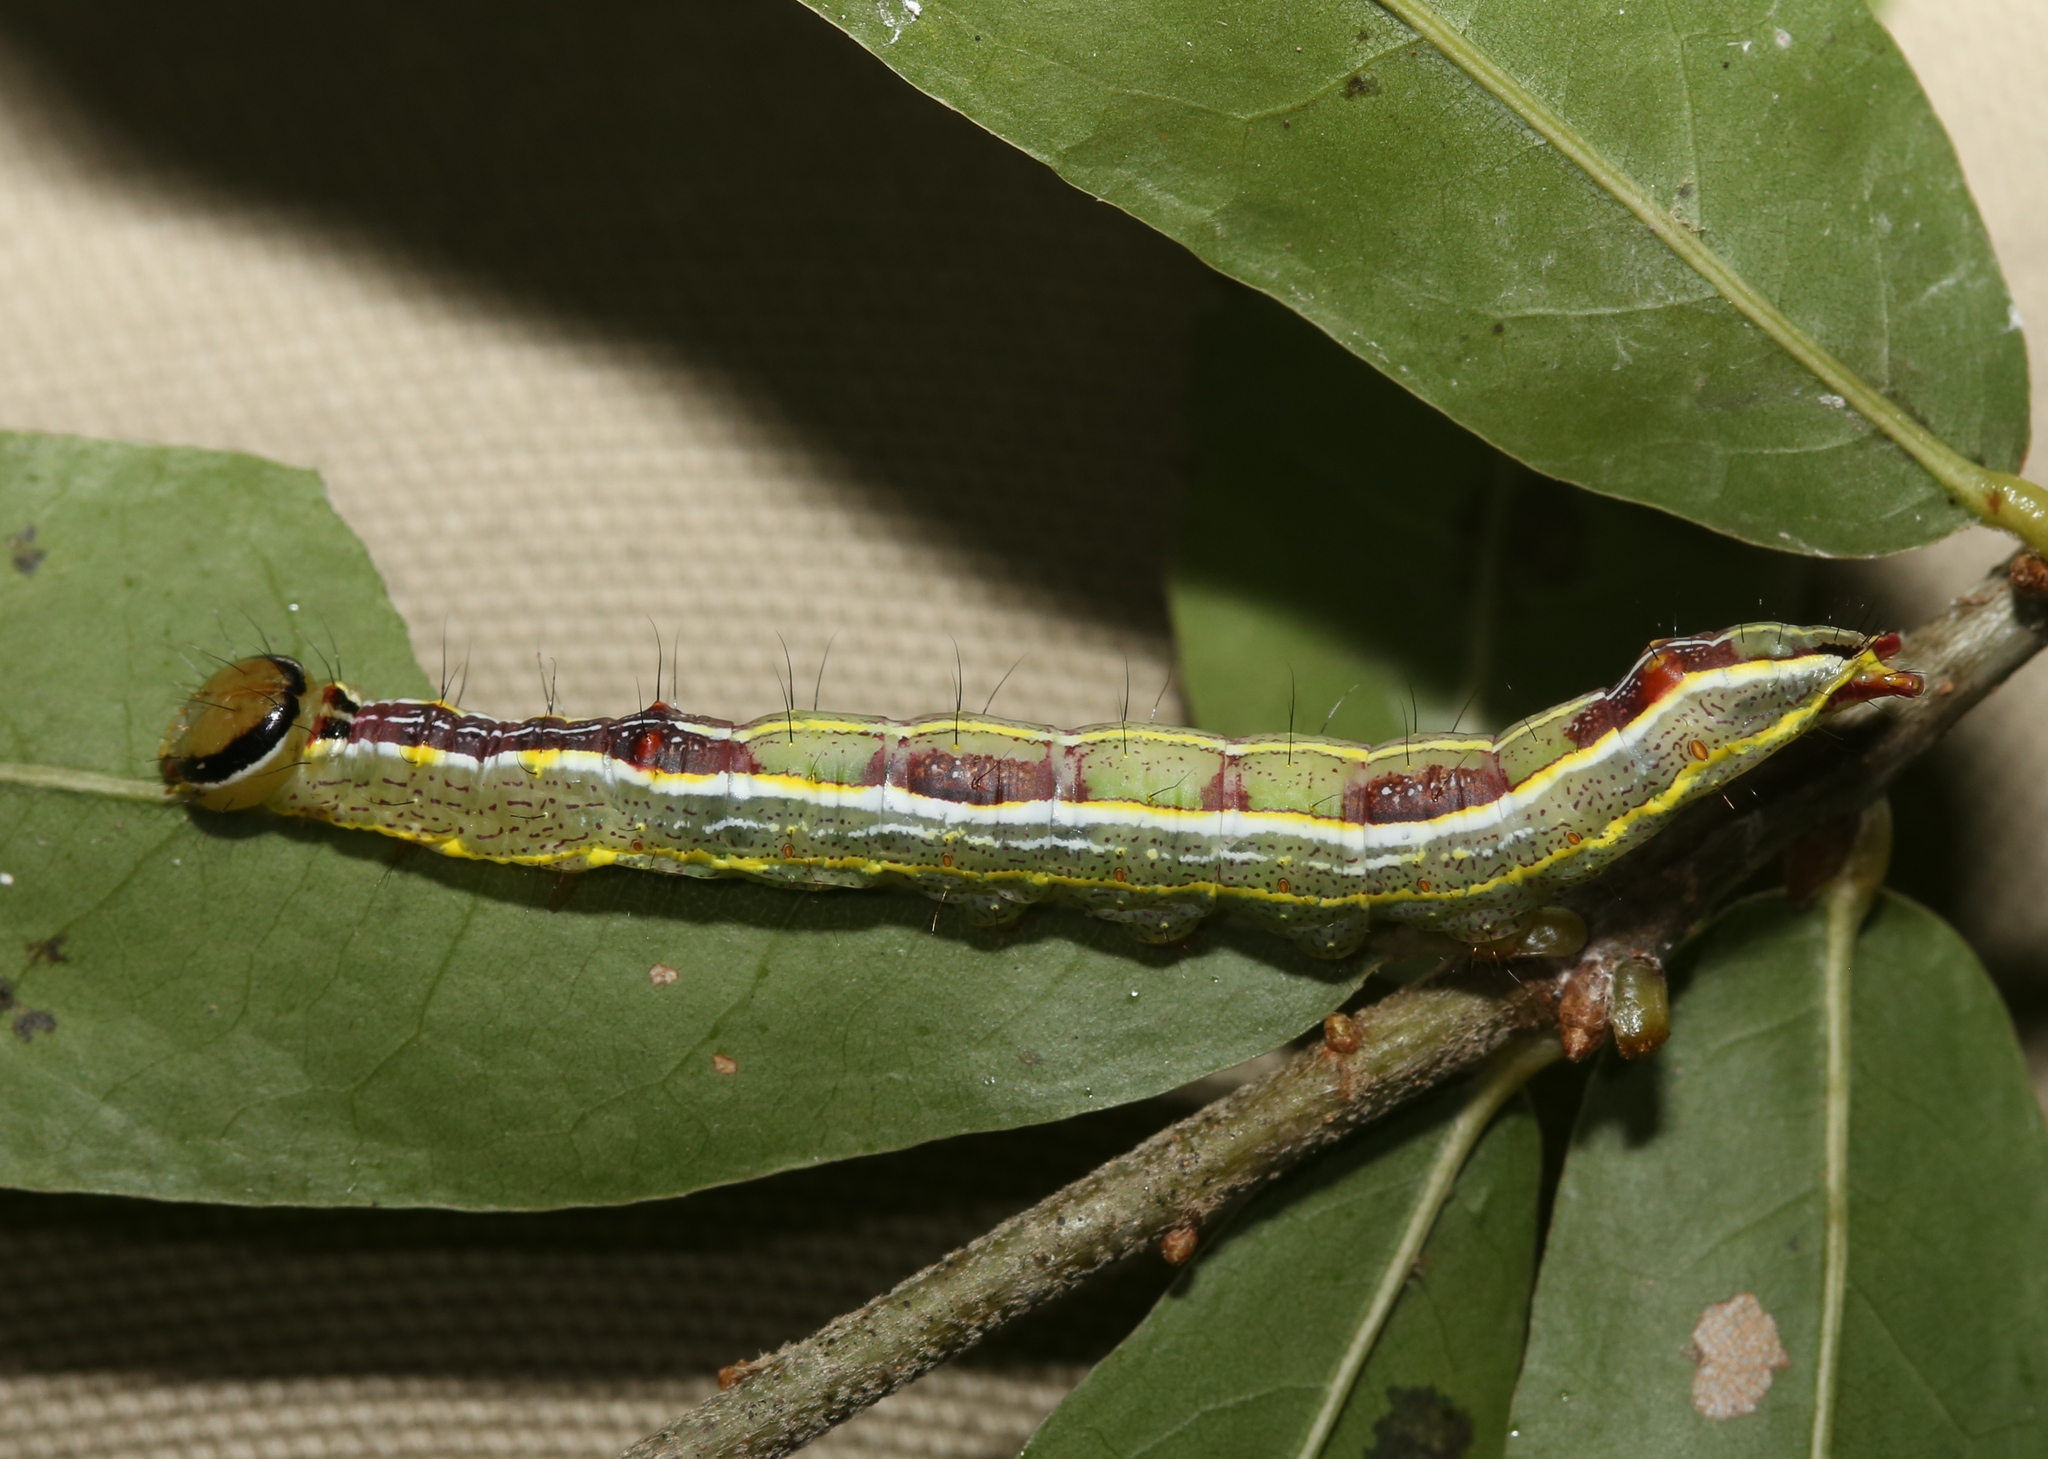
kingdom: Animalia
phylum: Arthropoda
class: Insecta
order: Lepidoptera
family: Notodontidae
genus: Lochmaeus
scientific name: Lochmaeus manteo
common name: Variable oakleaf caterpillar moth
